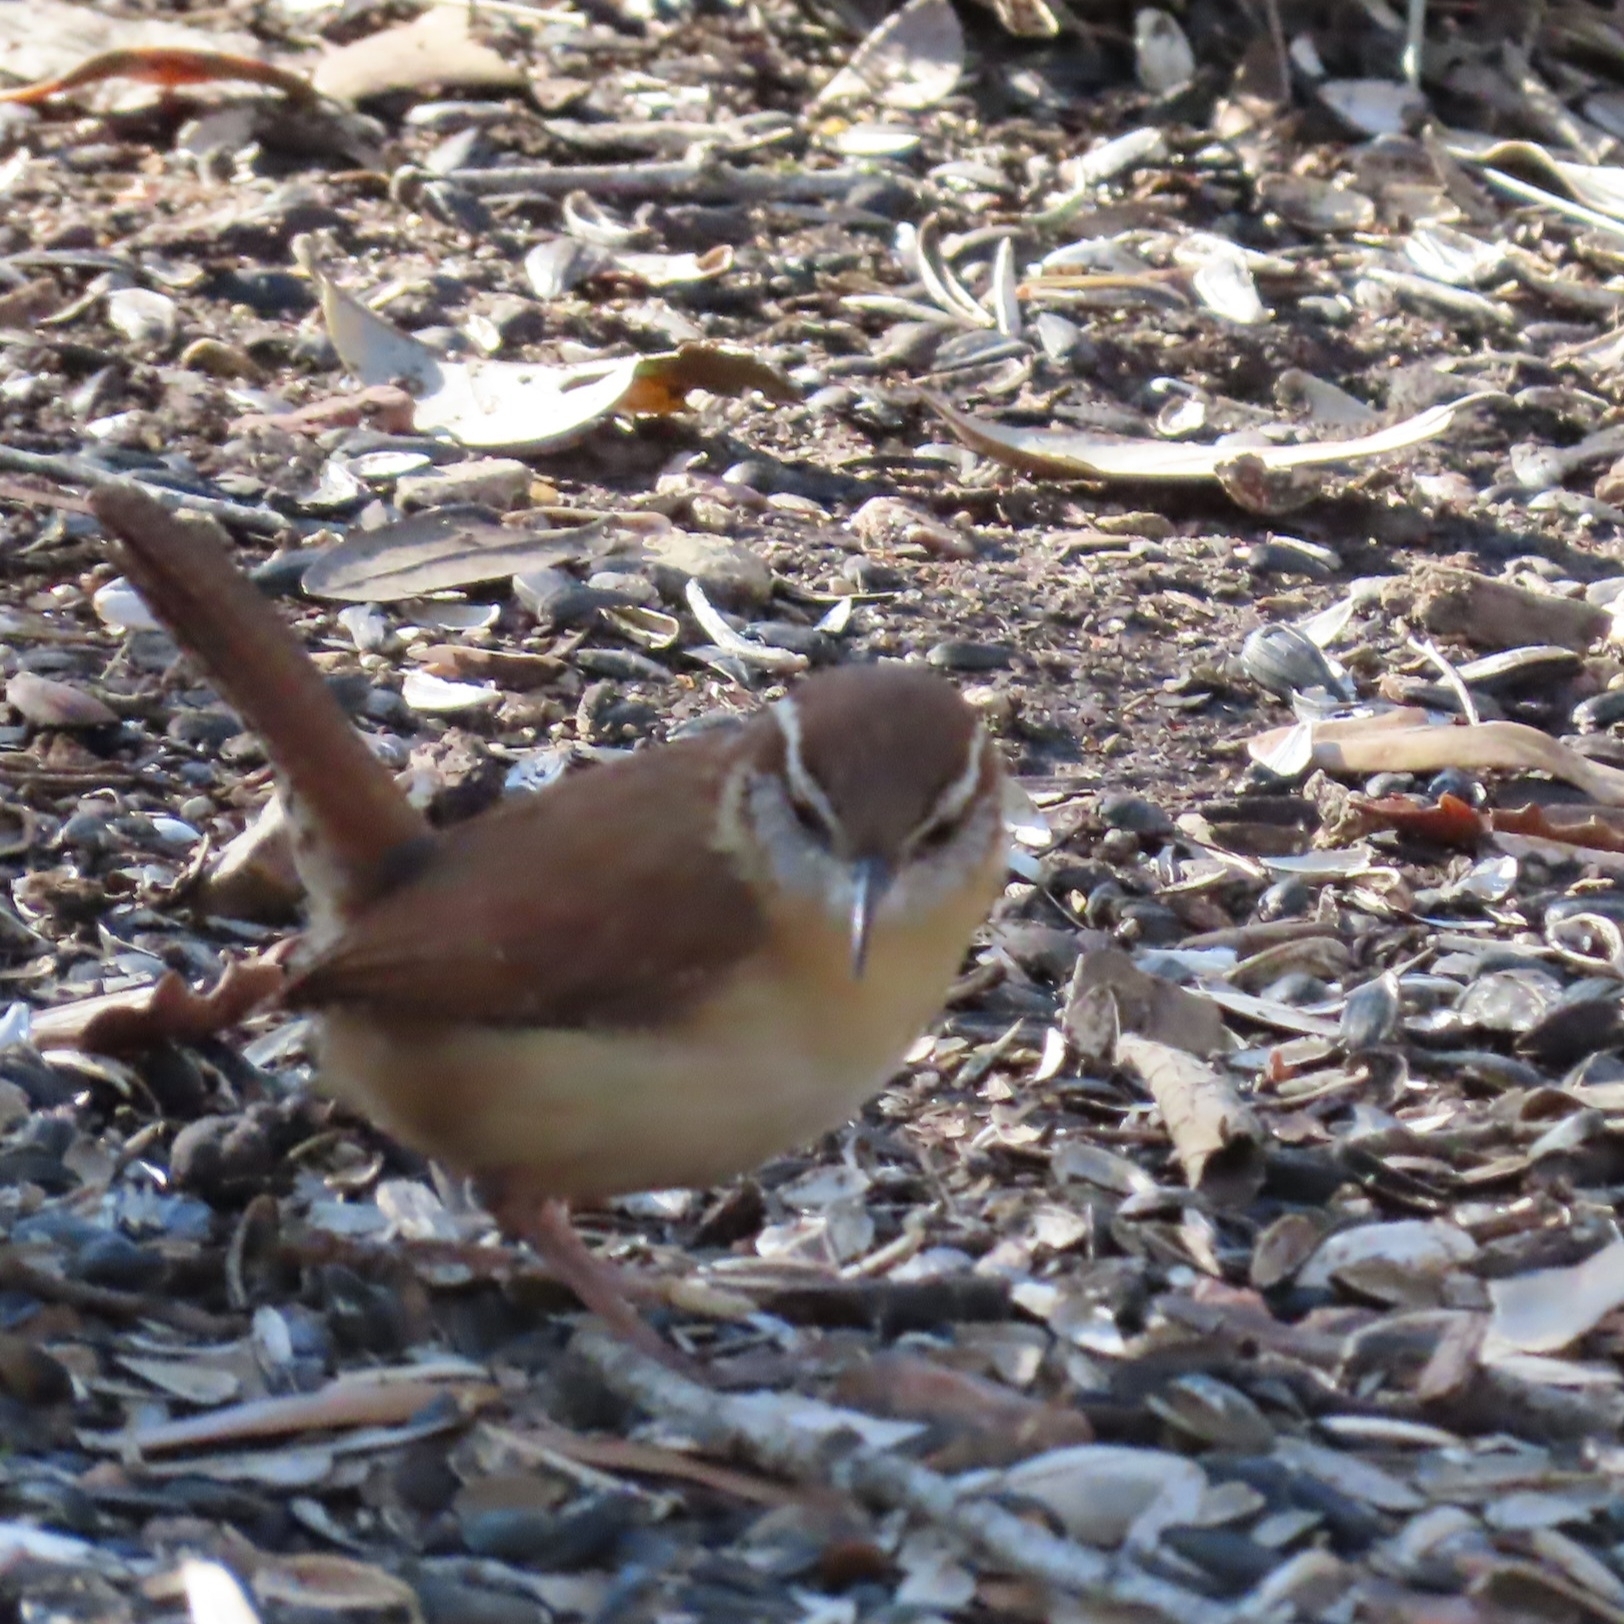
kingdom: Animalia
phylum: Chordata
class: Aves
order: Passeriformes
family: Troglodytidae
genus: Thryothorus
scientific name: Thryothorus ludovicianus
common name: Carolina wren
